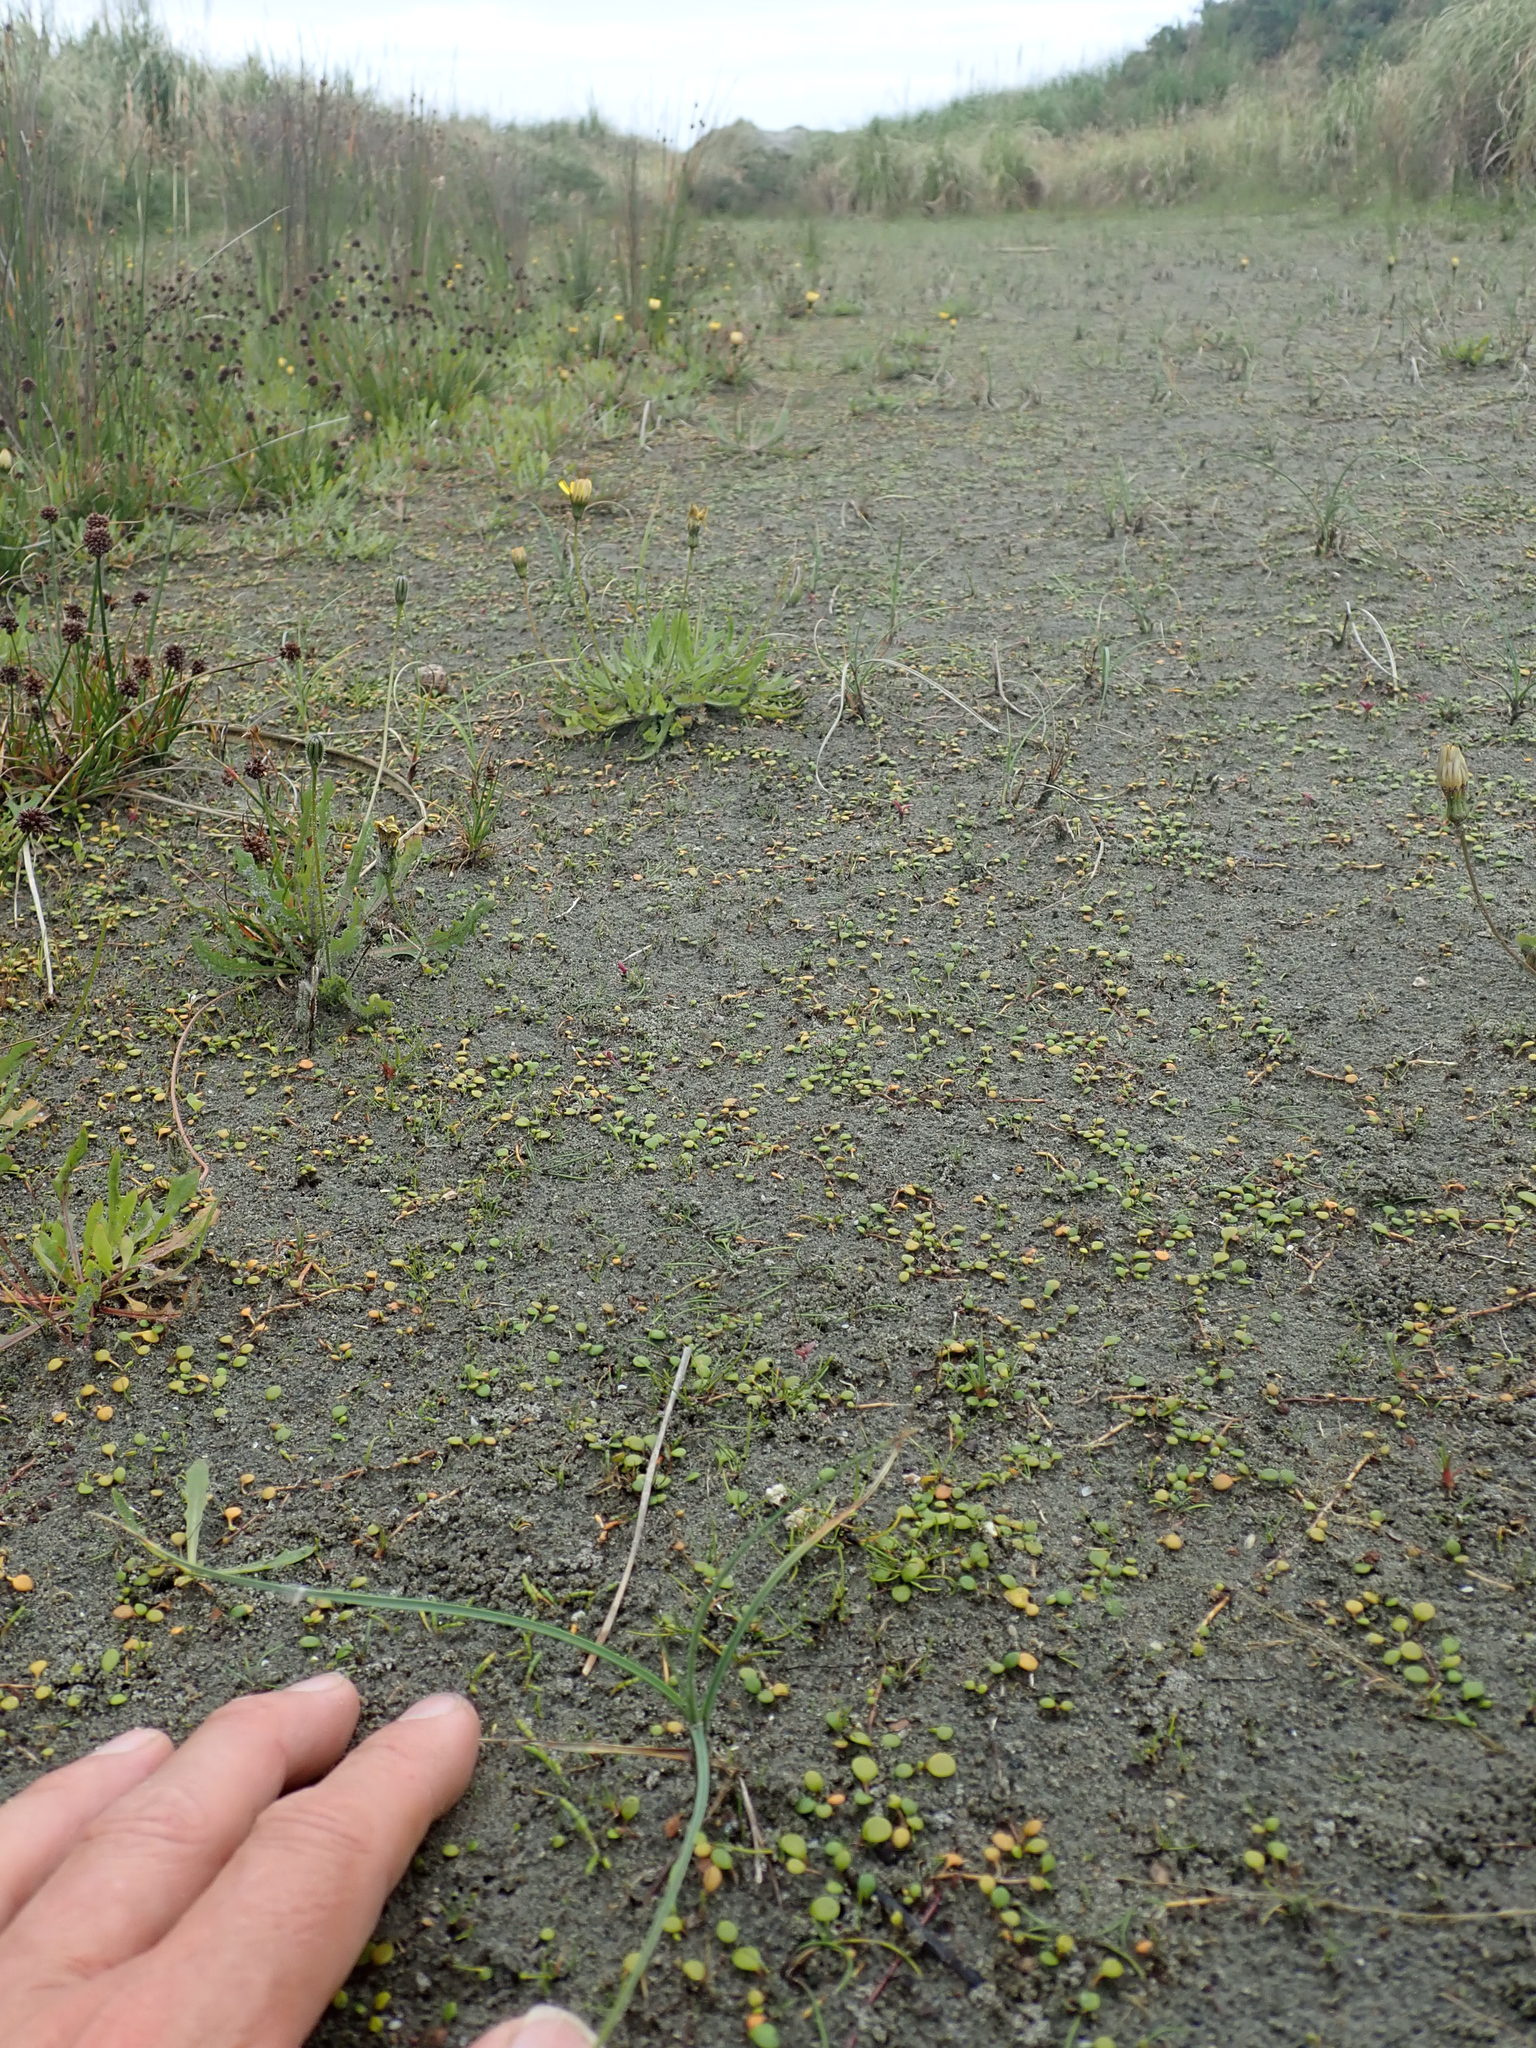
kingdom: Plantae
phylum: Tracheophyta
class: Magnoliopsida
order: Apiales
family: Apiaceae
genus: Lilaeopsis
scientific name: Lilaeopsis novae-zelandiae
